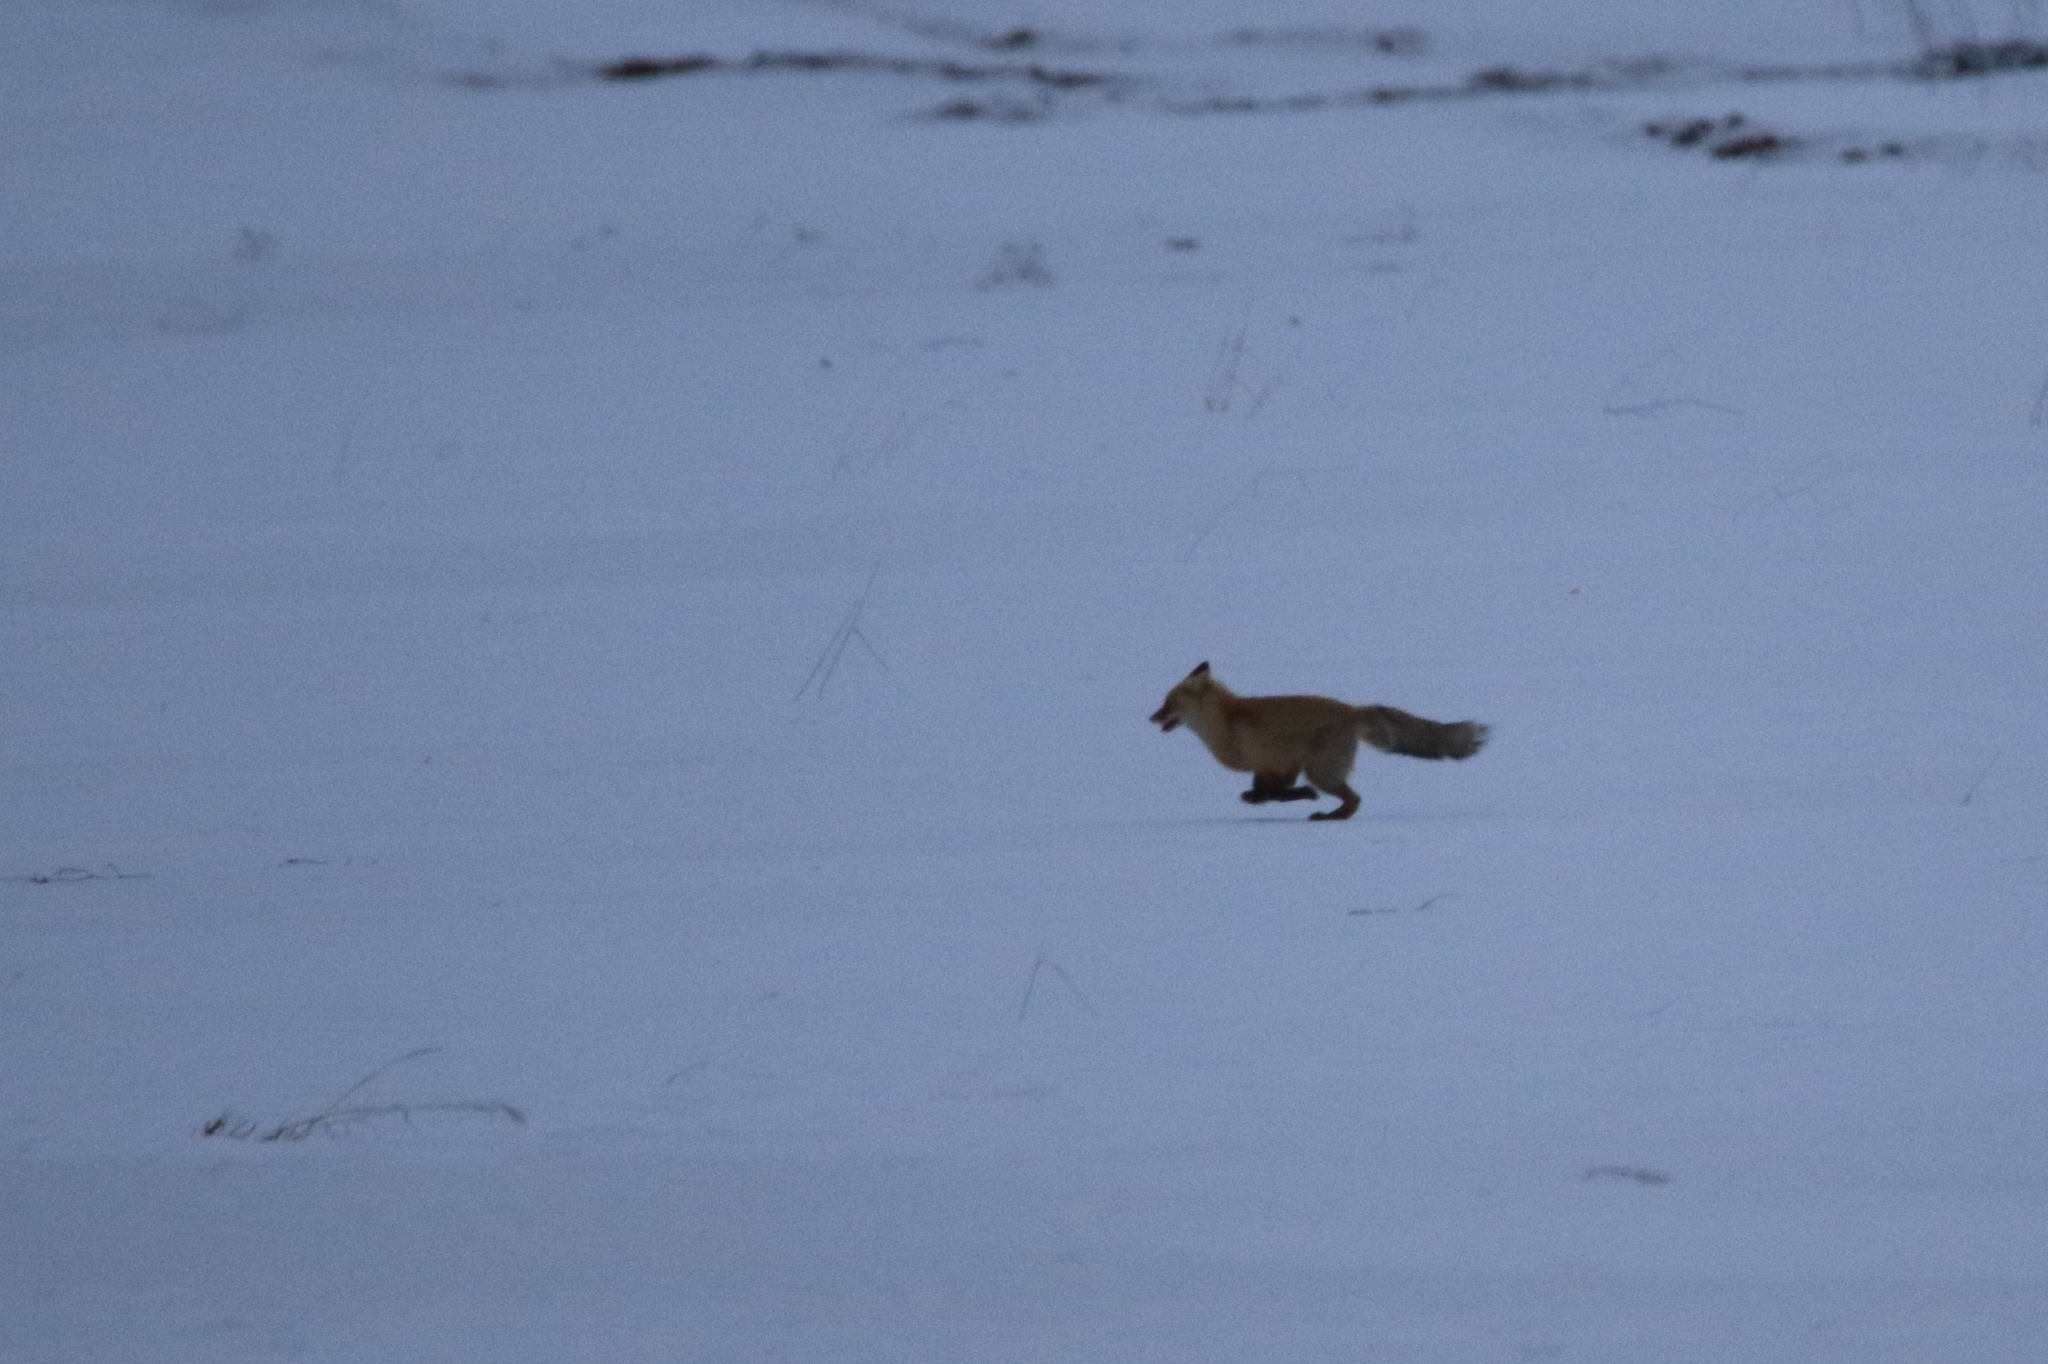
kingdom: Animalia
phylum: Chordata
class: Mammalia
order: Carnivora
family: Canidae
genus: Vulpes
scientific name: Vulpes vulpes
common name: Red fox
